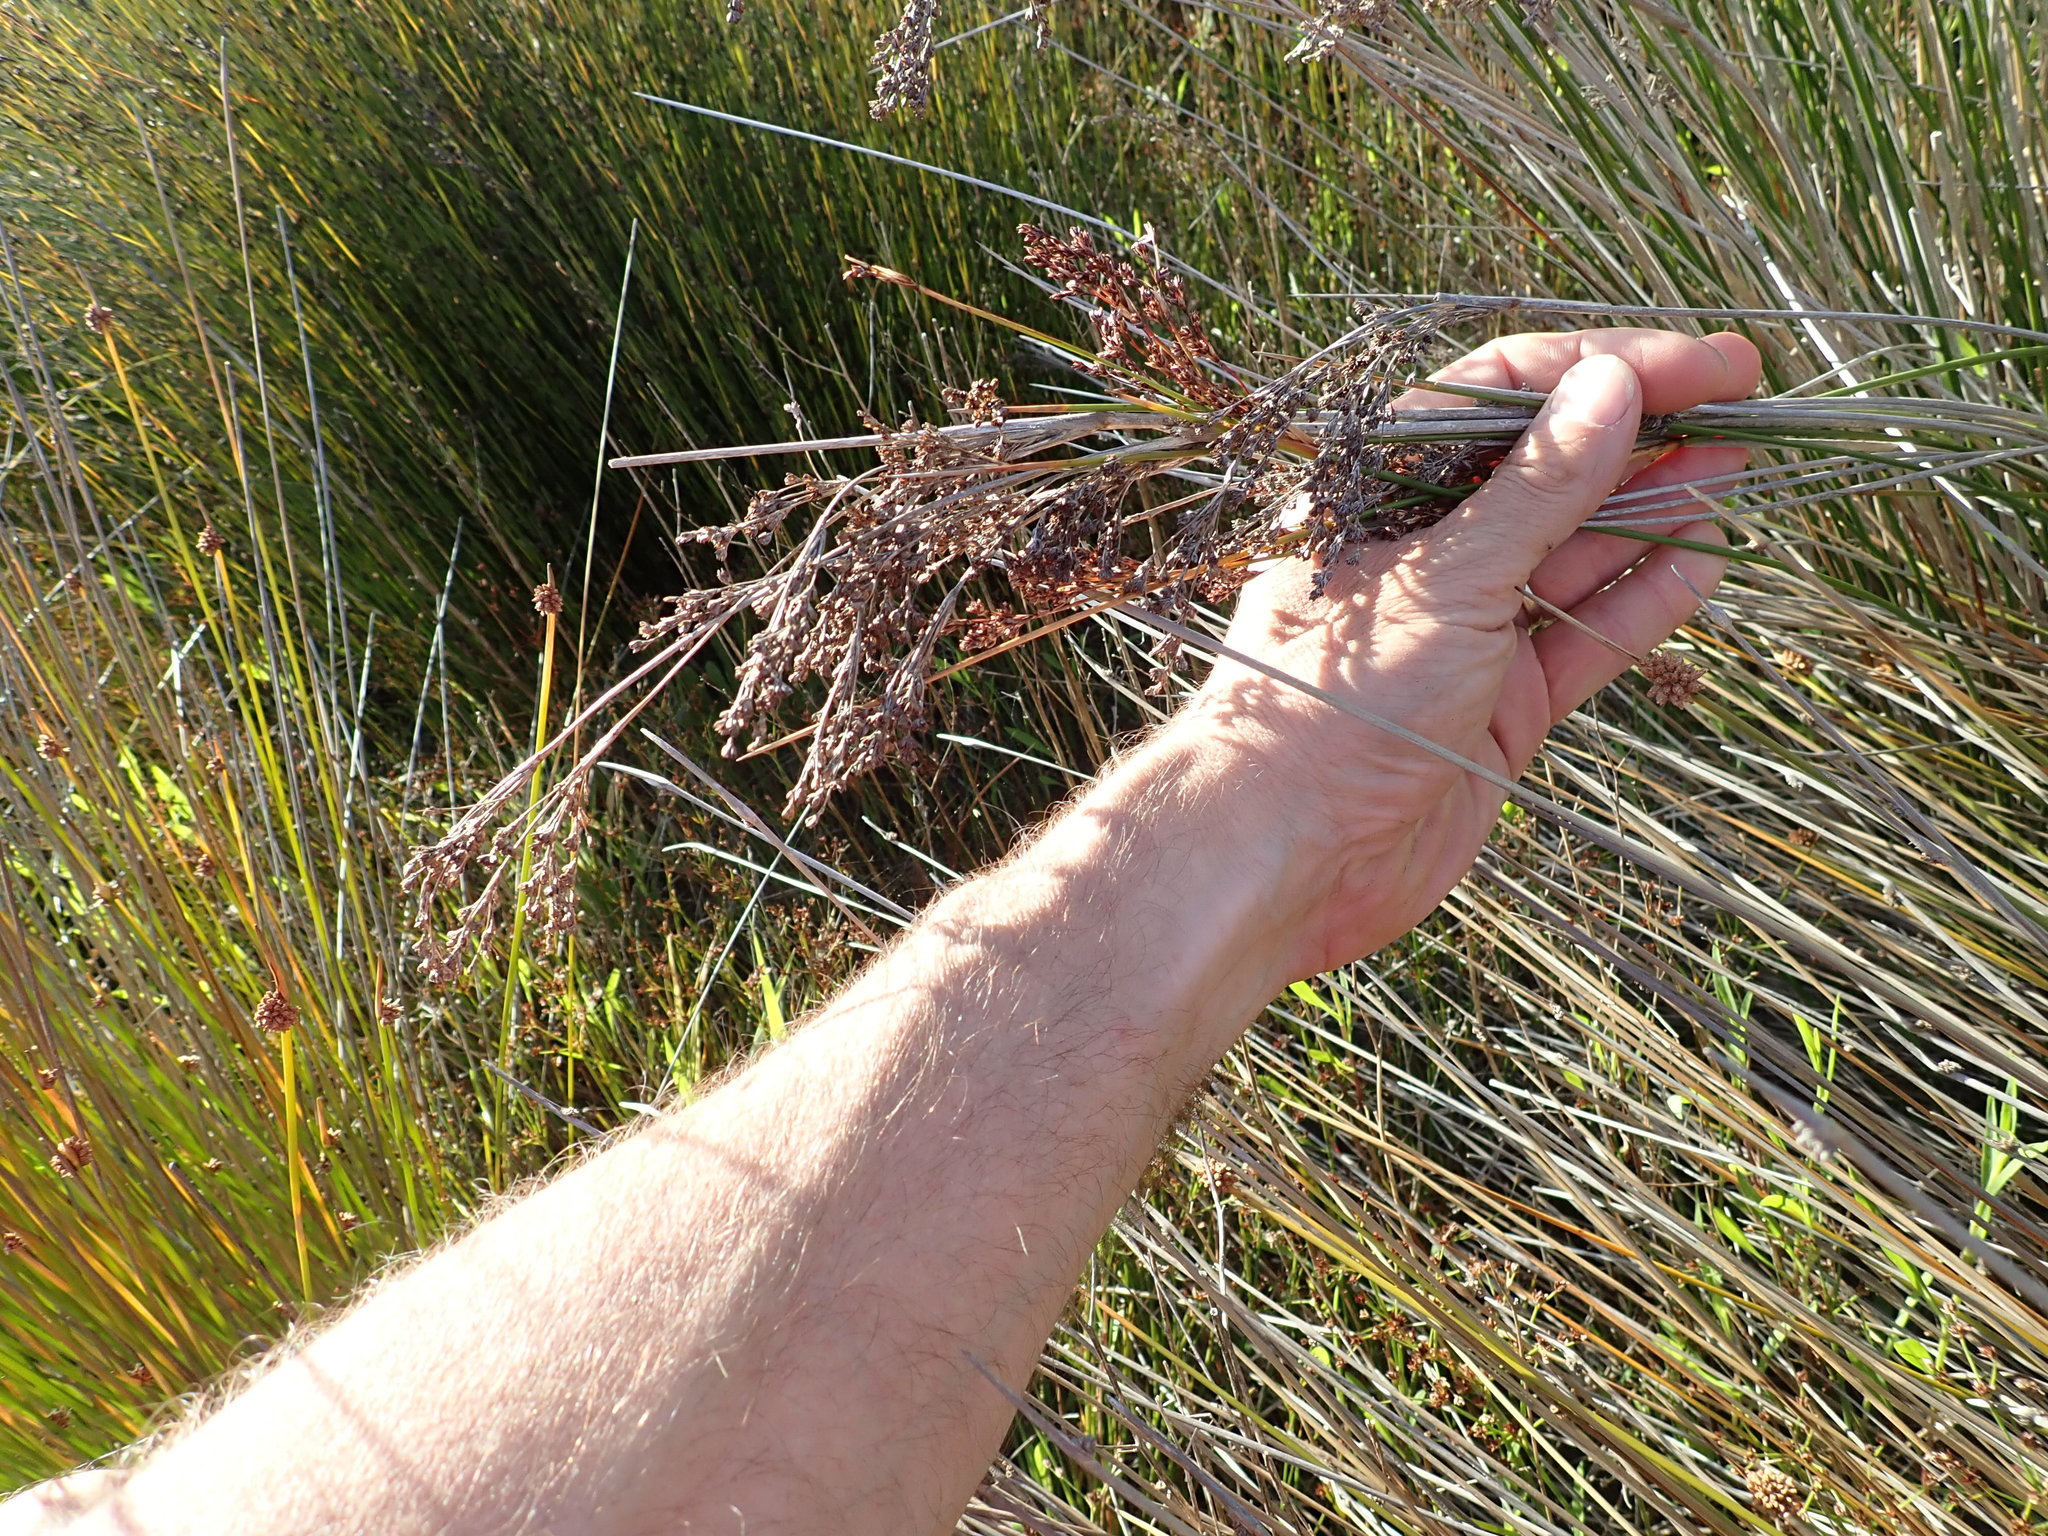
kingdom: Plantae
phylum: Tracheophyta
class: Liliopsida
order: Poales
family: Juncaceae
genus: Juncus
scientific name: Juncus kraussii
